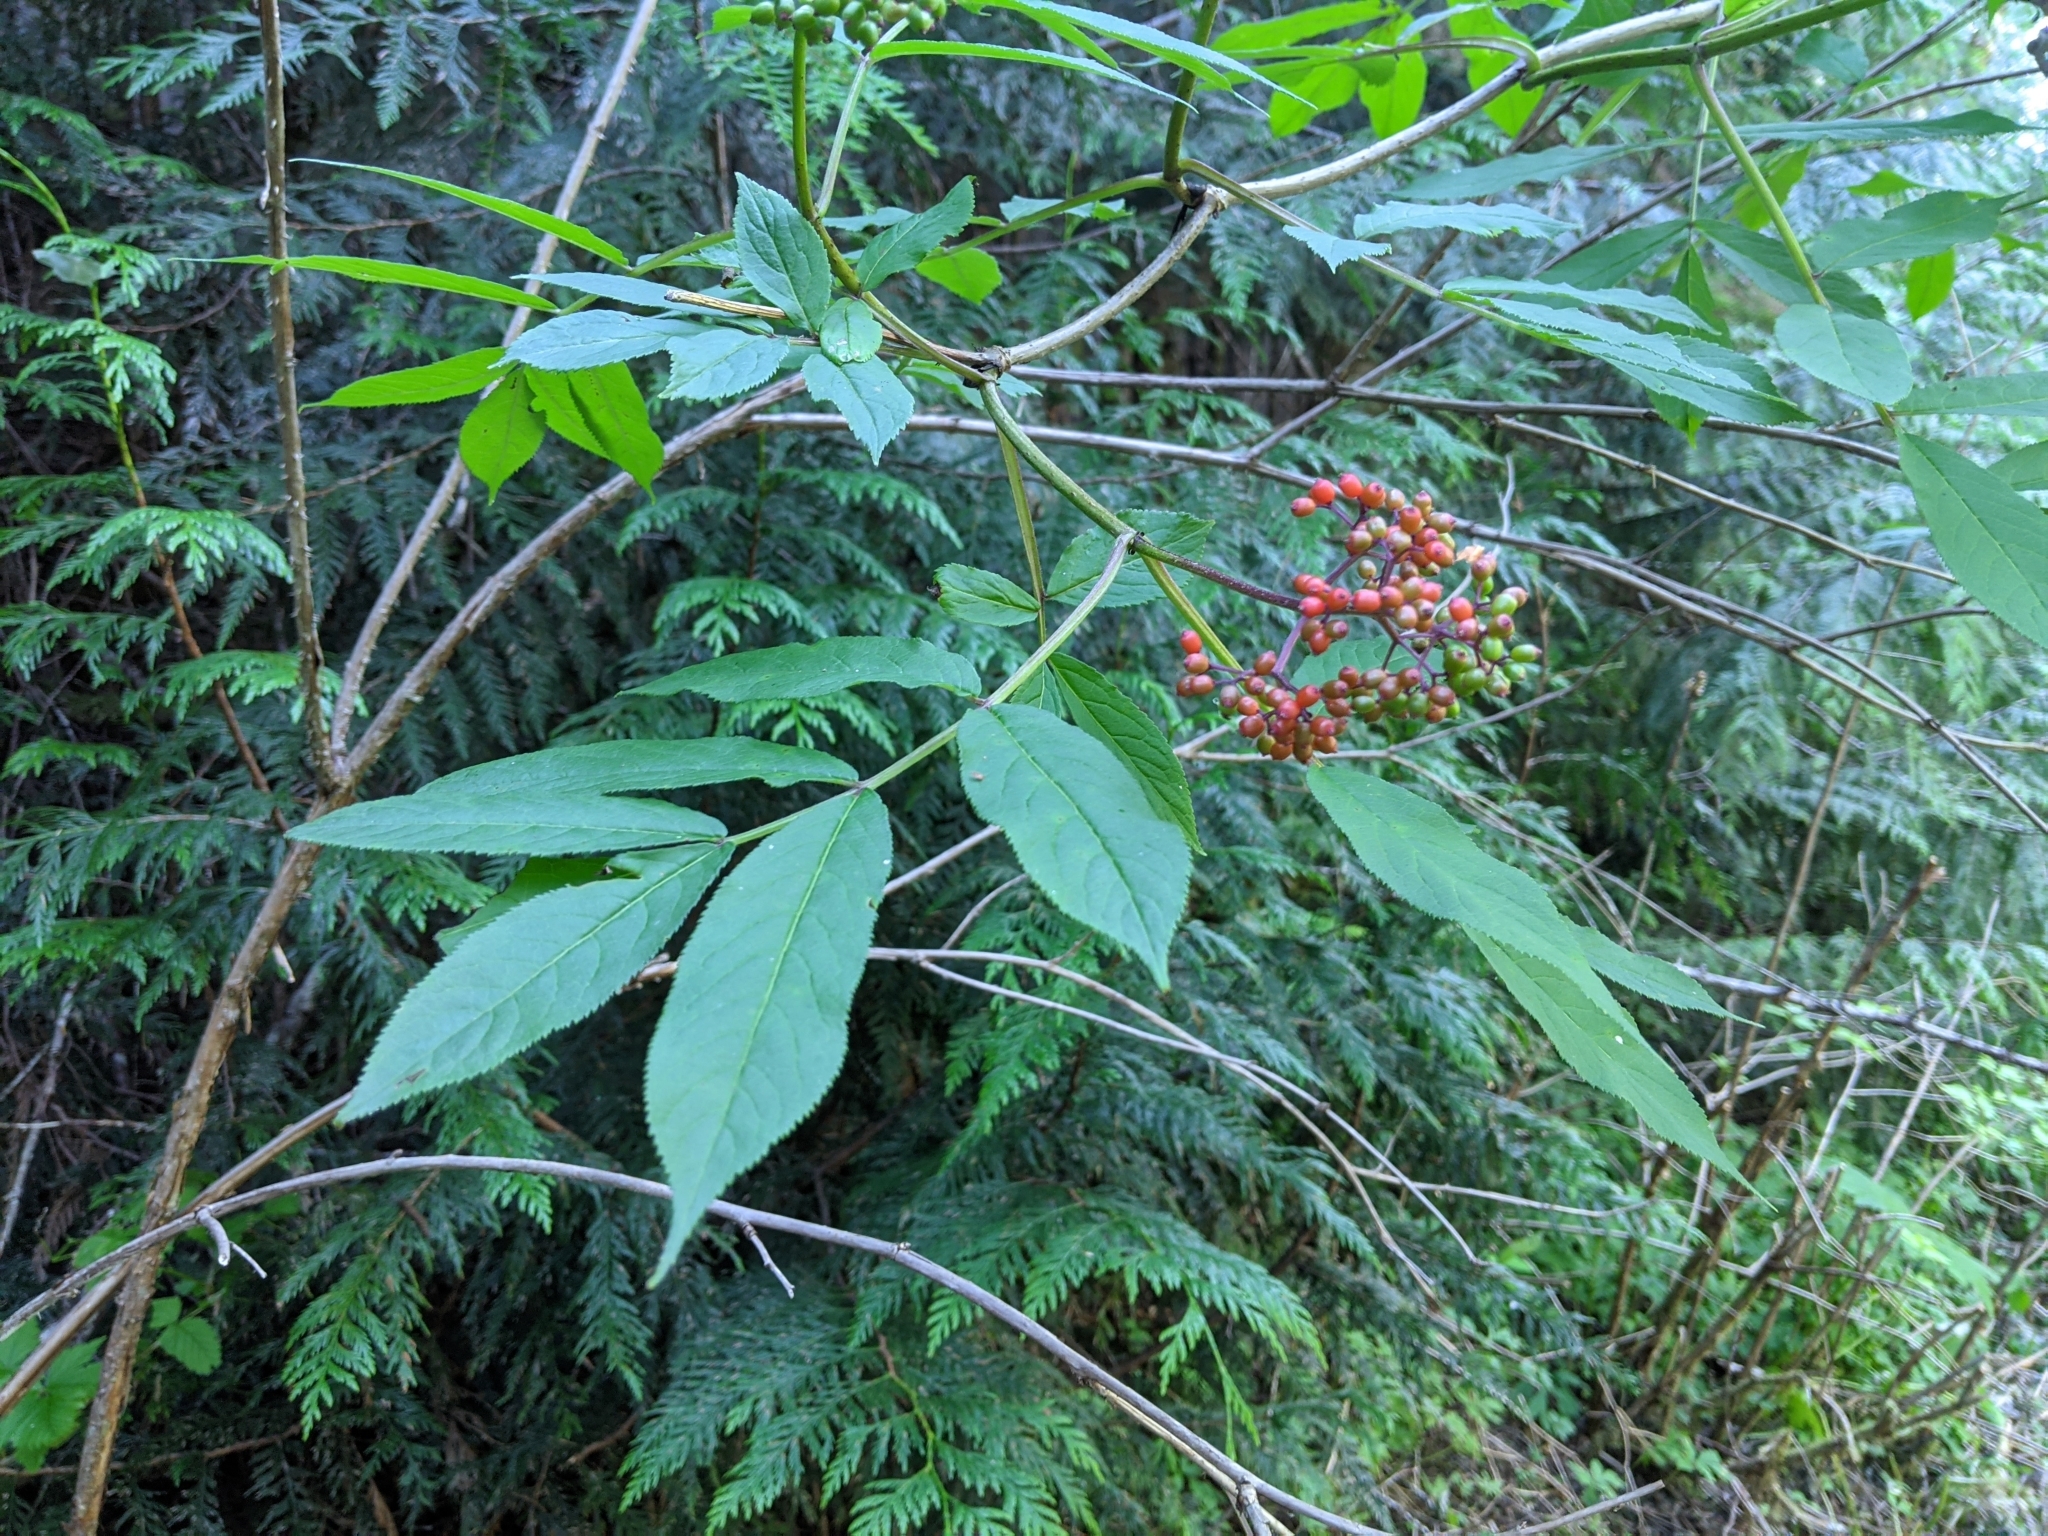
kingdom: Plantae
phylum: Tracheophyta
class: Magnoliopsida
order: Dipsacales
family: Viburnaceae
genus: Sambucus
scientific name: Sambucus racemosa
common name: Red-berried elder
